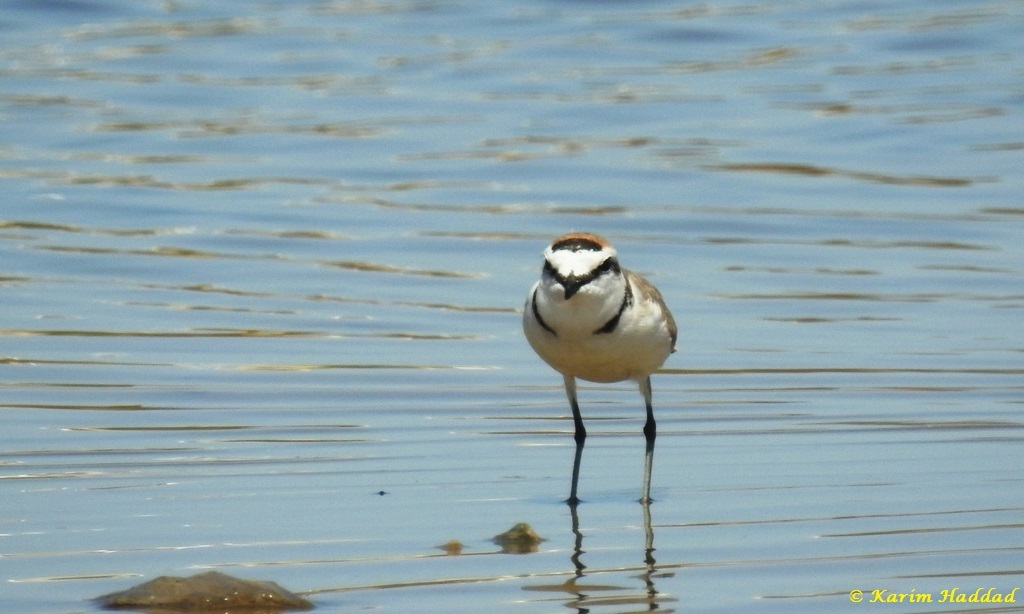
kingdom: Animalia
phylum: Chordata
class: Aves
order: Charadriiformes
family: Charadriidae
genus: Charadrius
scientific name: Charadrius alexandrinus
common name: Kentish plover
